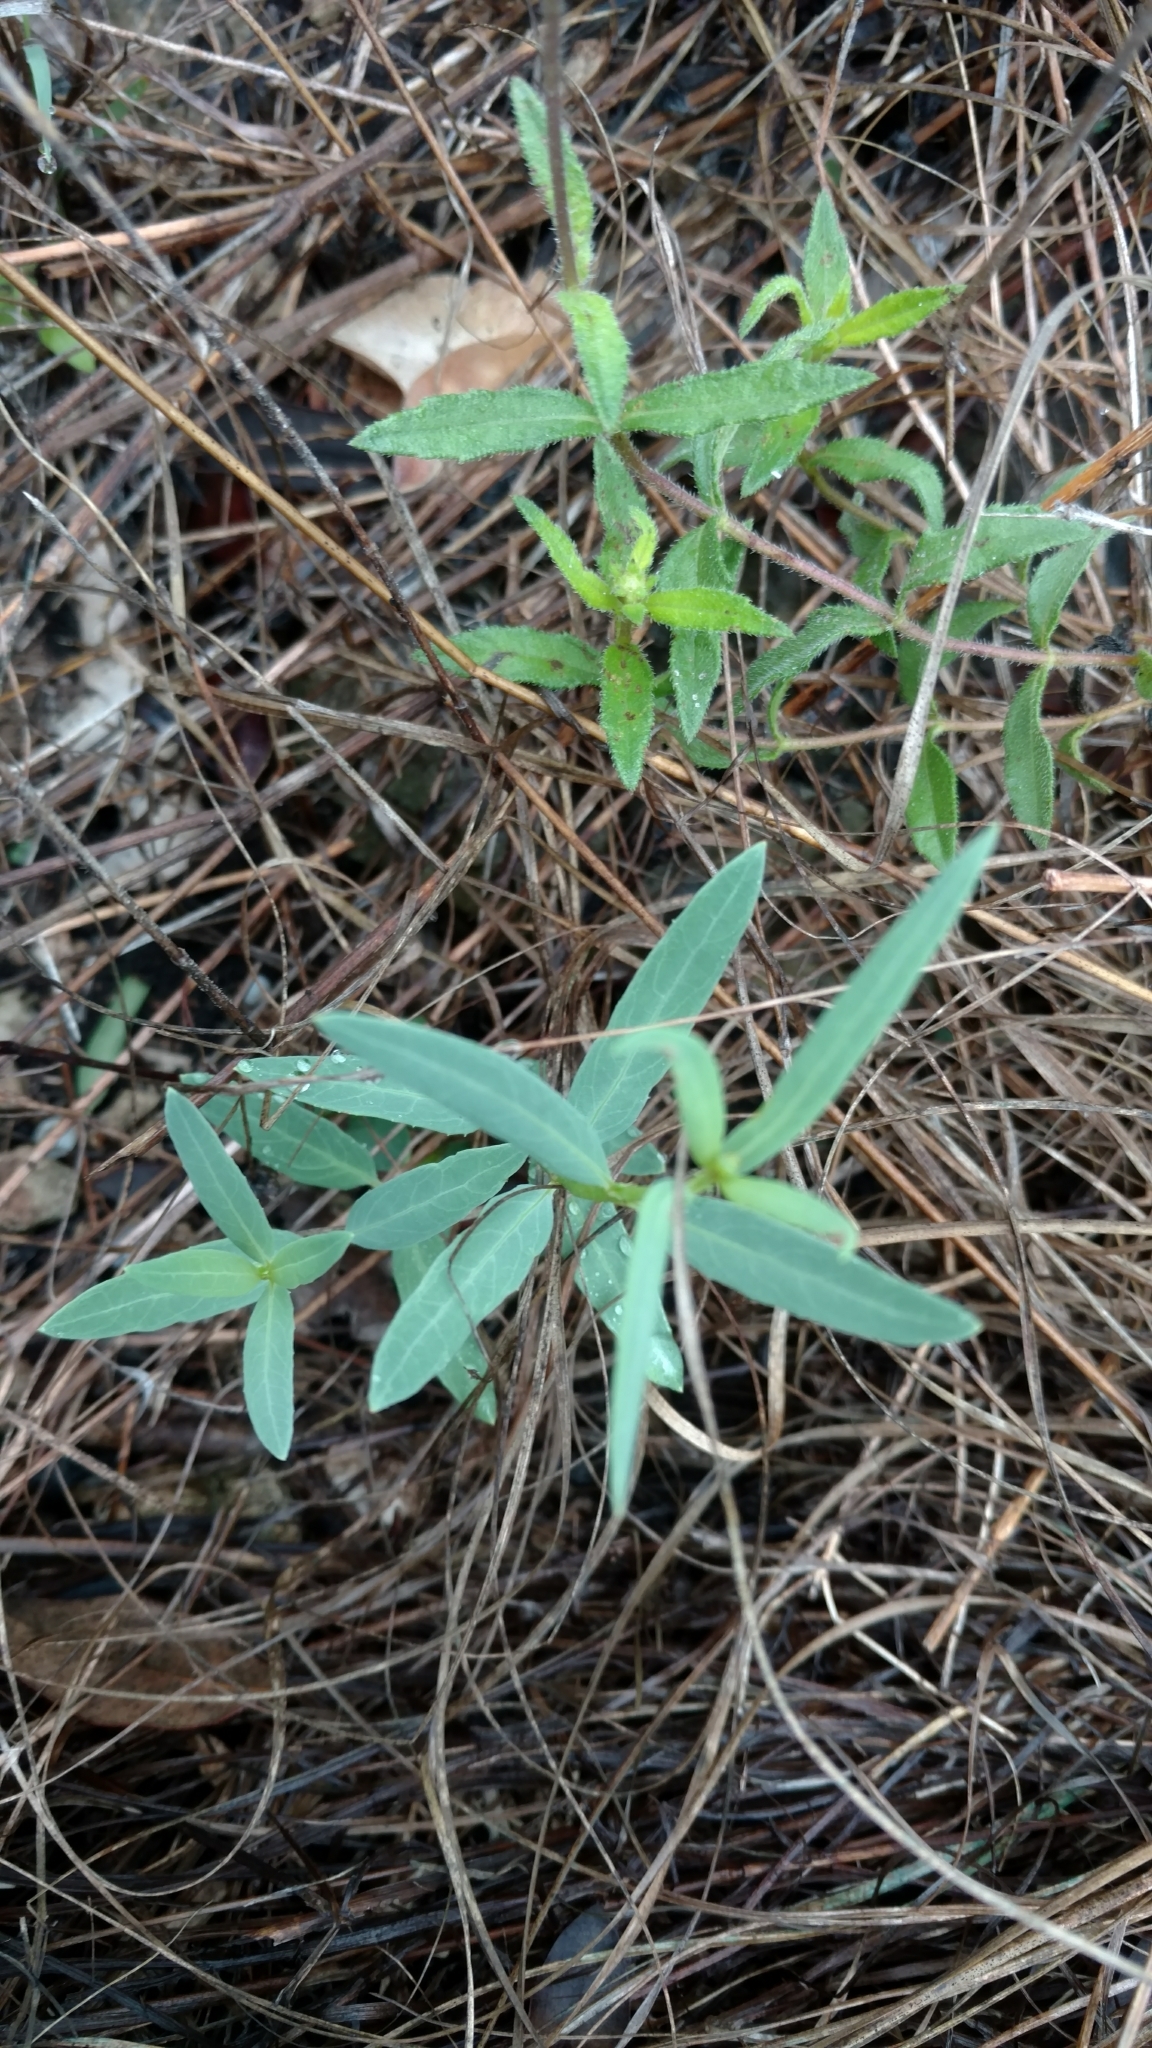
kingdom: Plantae
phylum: Tracheophyta
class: Magnoliopsida
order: Malpighiales
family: Malpighiaceae
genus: Galphimia
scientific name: Galphimia angustifolia
